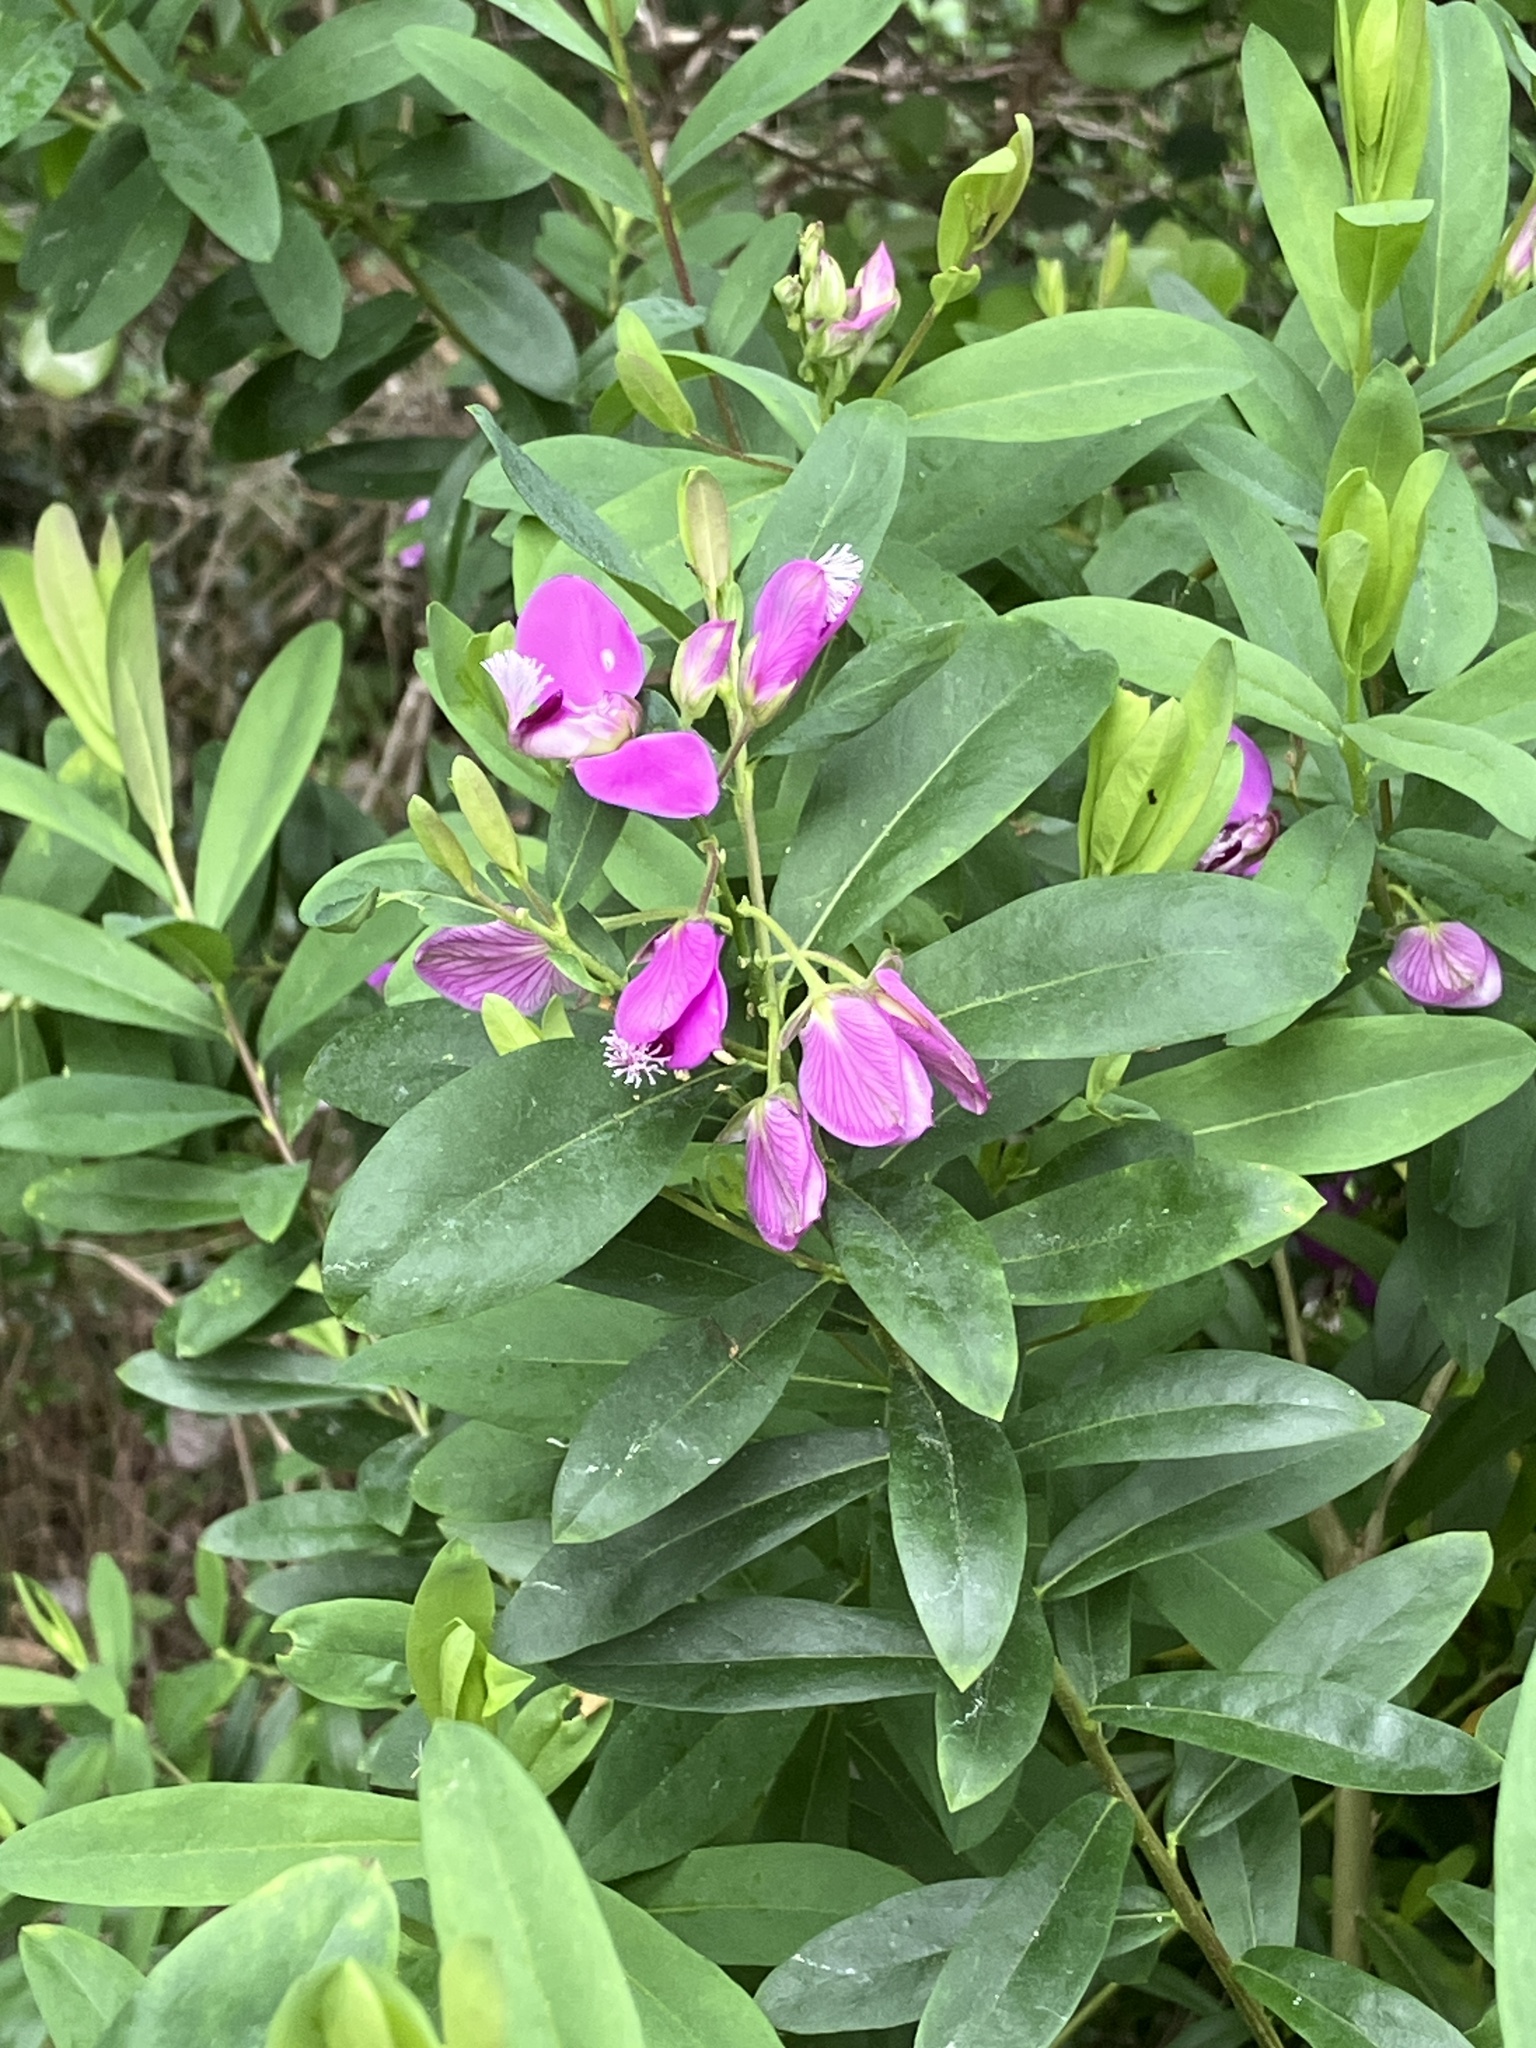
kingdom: Plantae
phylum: Tracheophyta
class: Magnoliopsida
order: Fabales
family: Polygalaceae
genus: Polygala
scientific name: Polygala myrtifolia
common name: Myrtle-leaf milkwort
